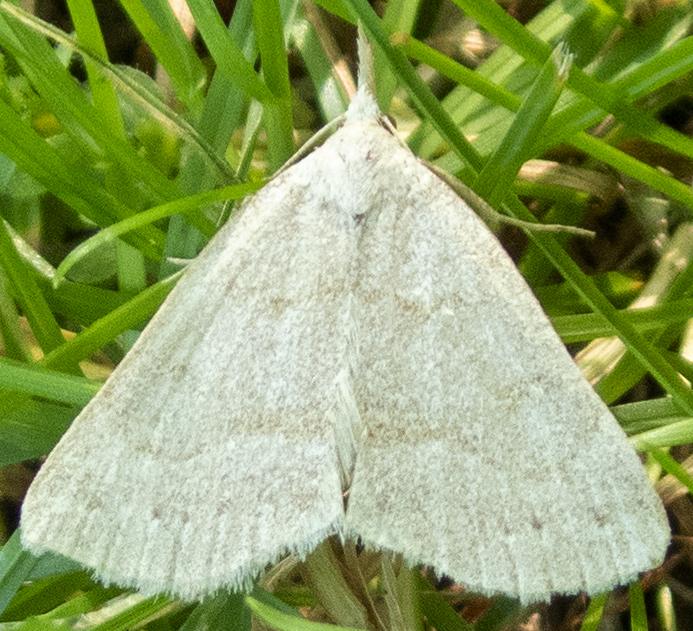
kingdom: Animalia
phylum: Arthropoda
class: Insecta
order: Lepidoptera
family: Erebidae
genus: Macrochilo
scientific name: Macrochilo morbidalis
